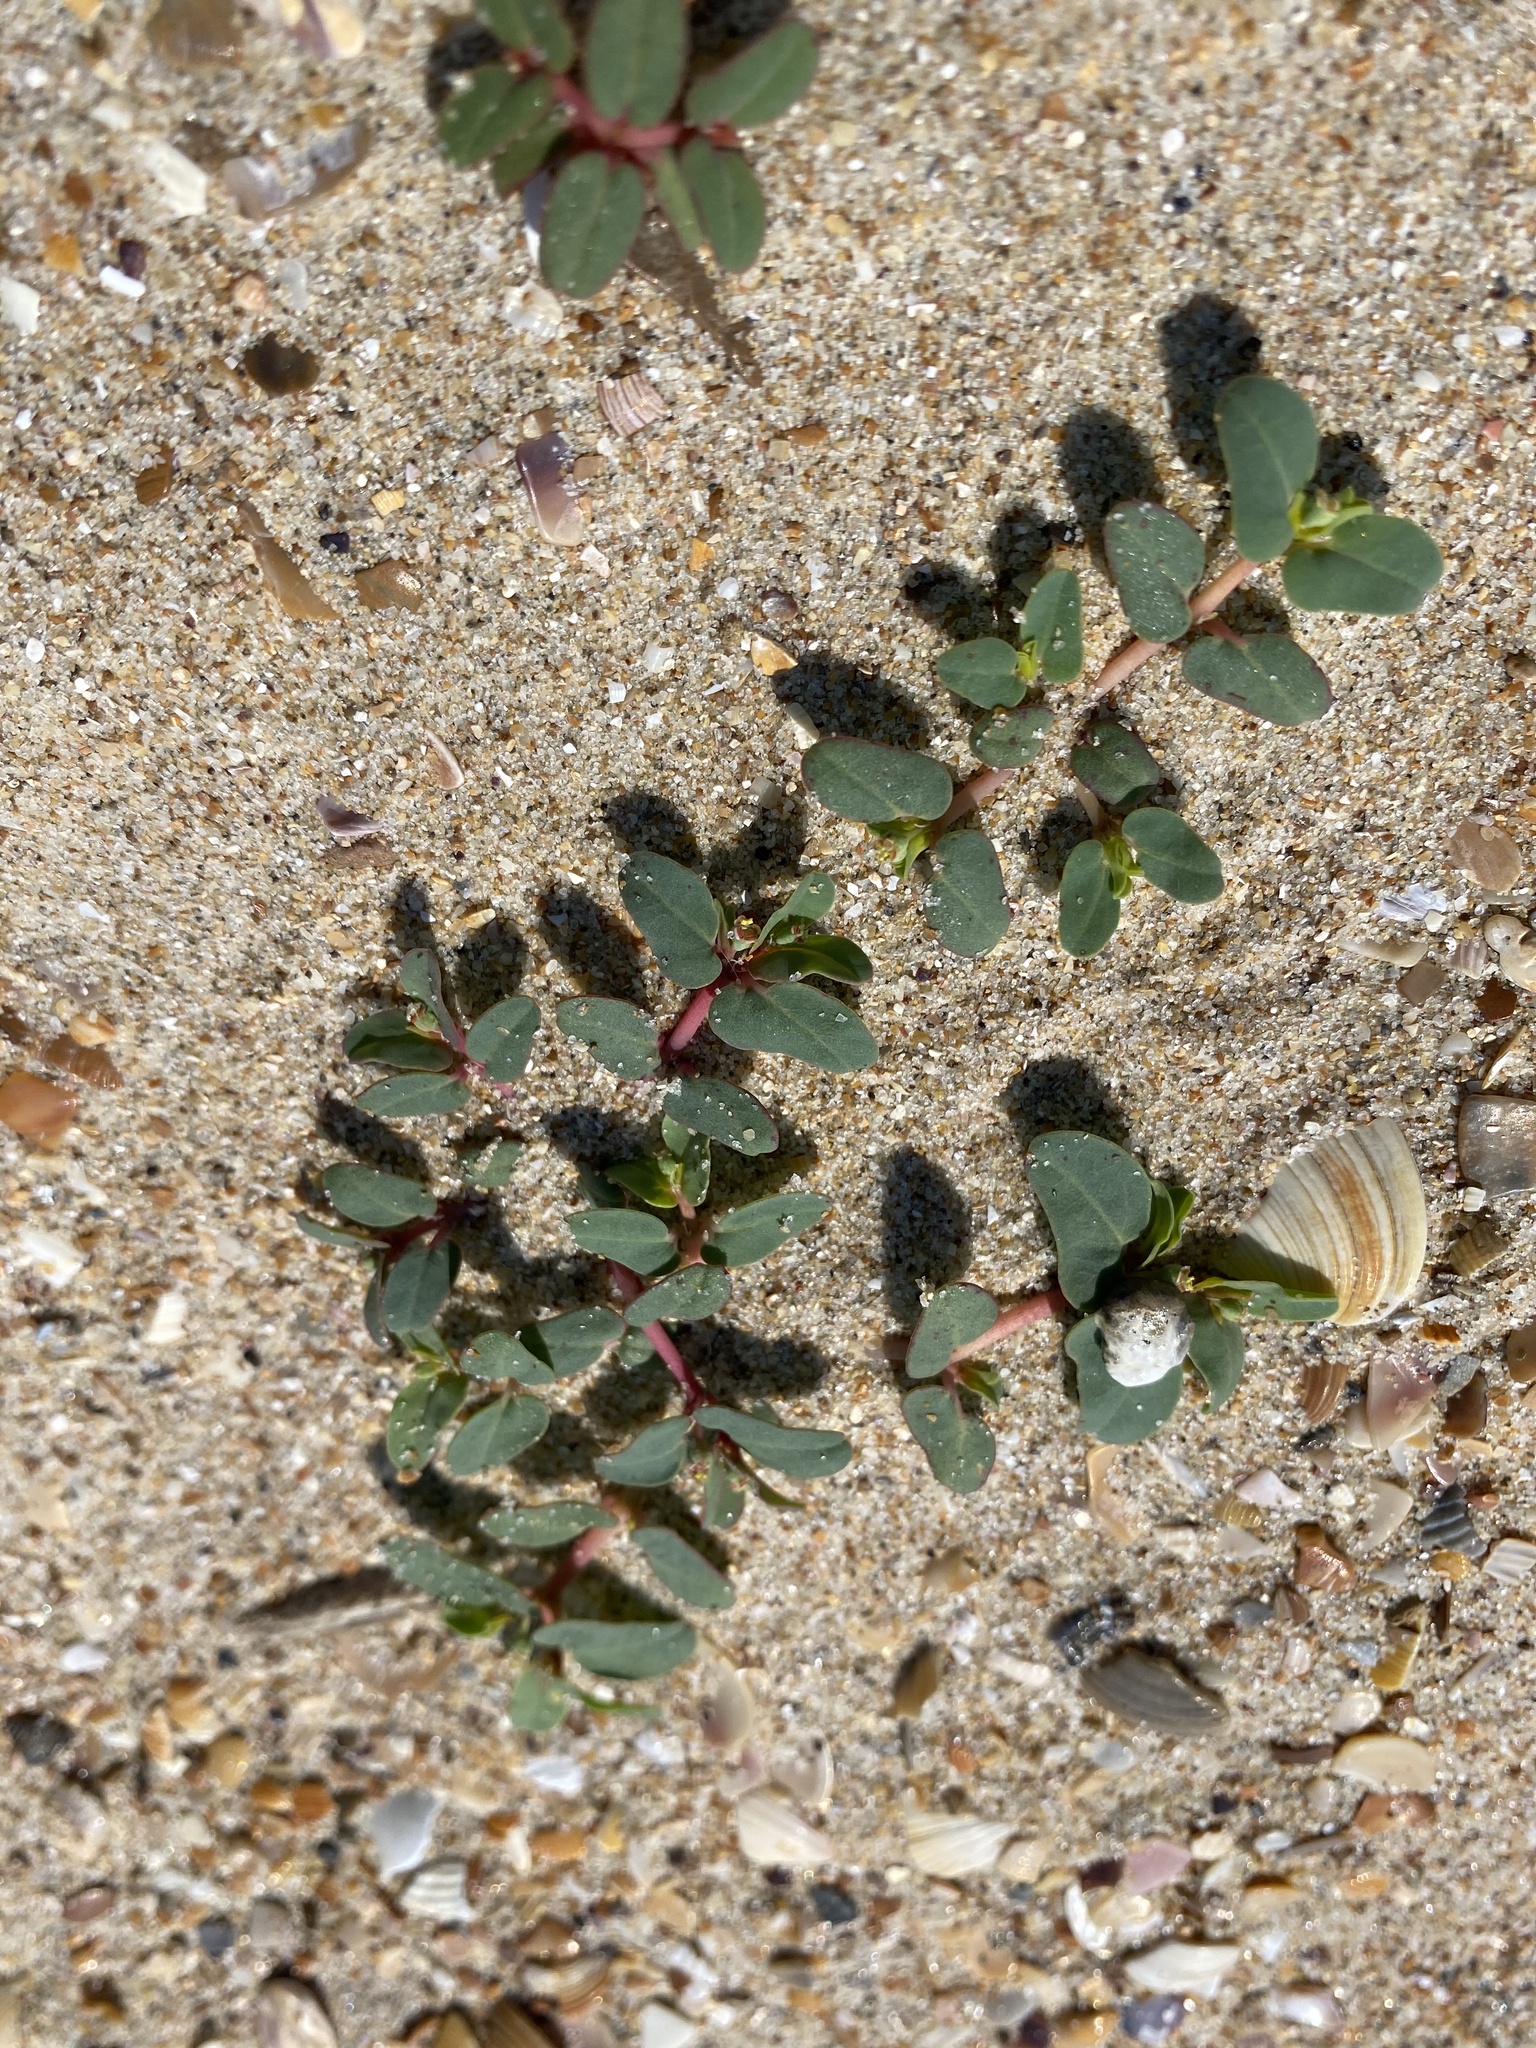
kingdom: Plantae
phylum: Tracheophyta
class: Magnoliopsida
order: Malpighiales
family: Euphorbiaceae
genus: Euphorbia
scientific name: Euphorbia peplis
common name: Purple spurge
